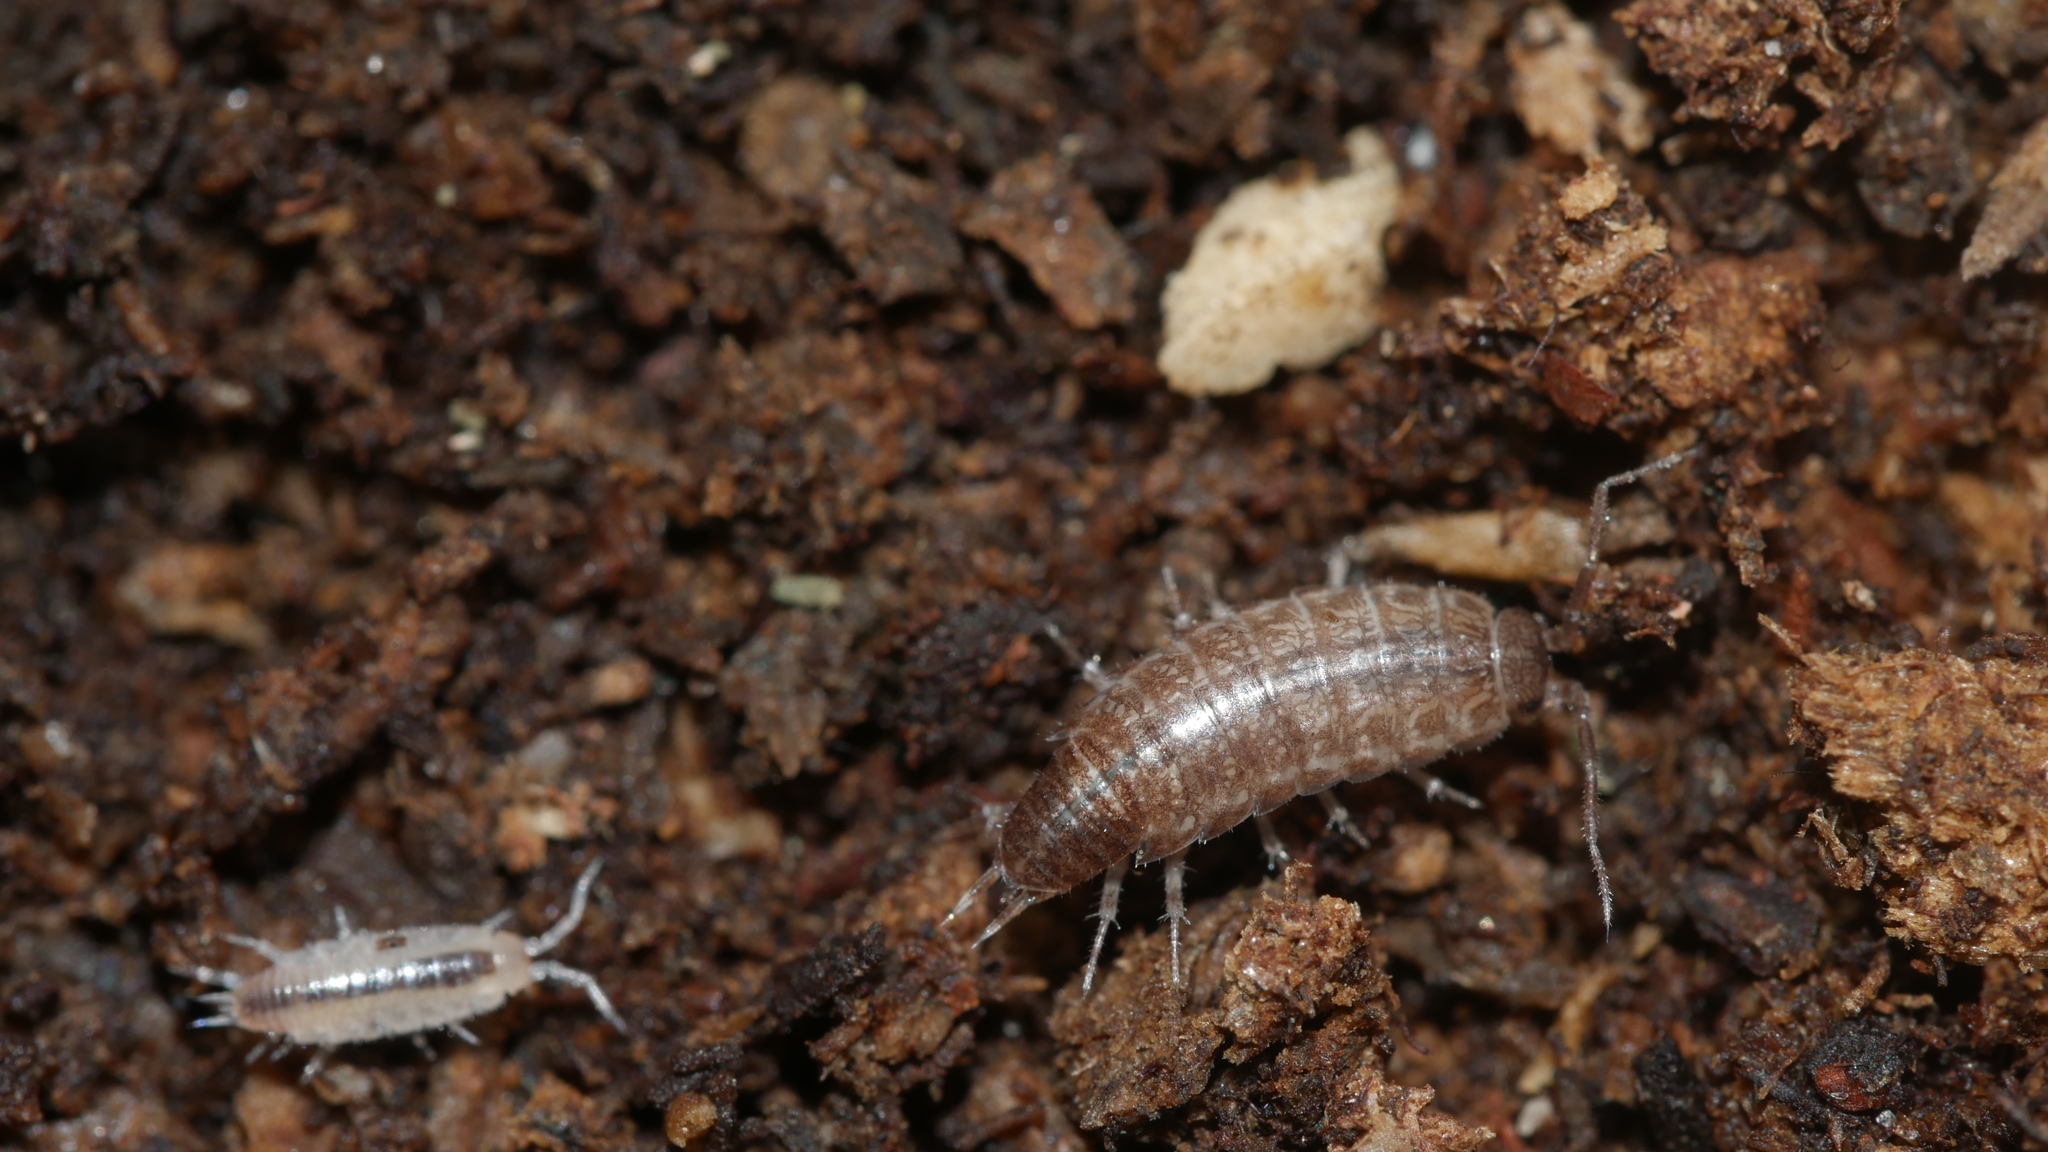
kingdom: Animalia
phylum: Arthropoda
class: Malacostraca
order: Isopoda
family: Philosciidae
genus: Chaetophiloscia
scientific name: Chaetophiloscia sicula
